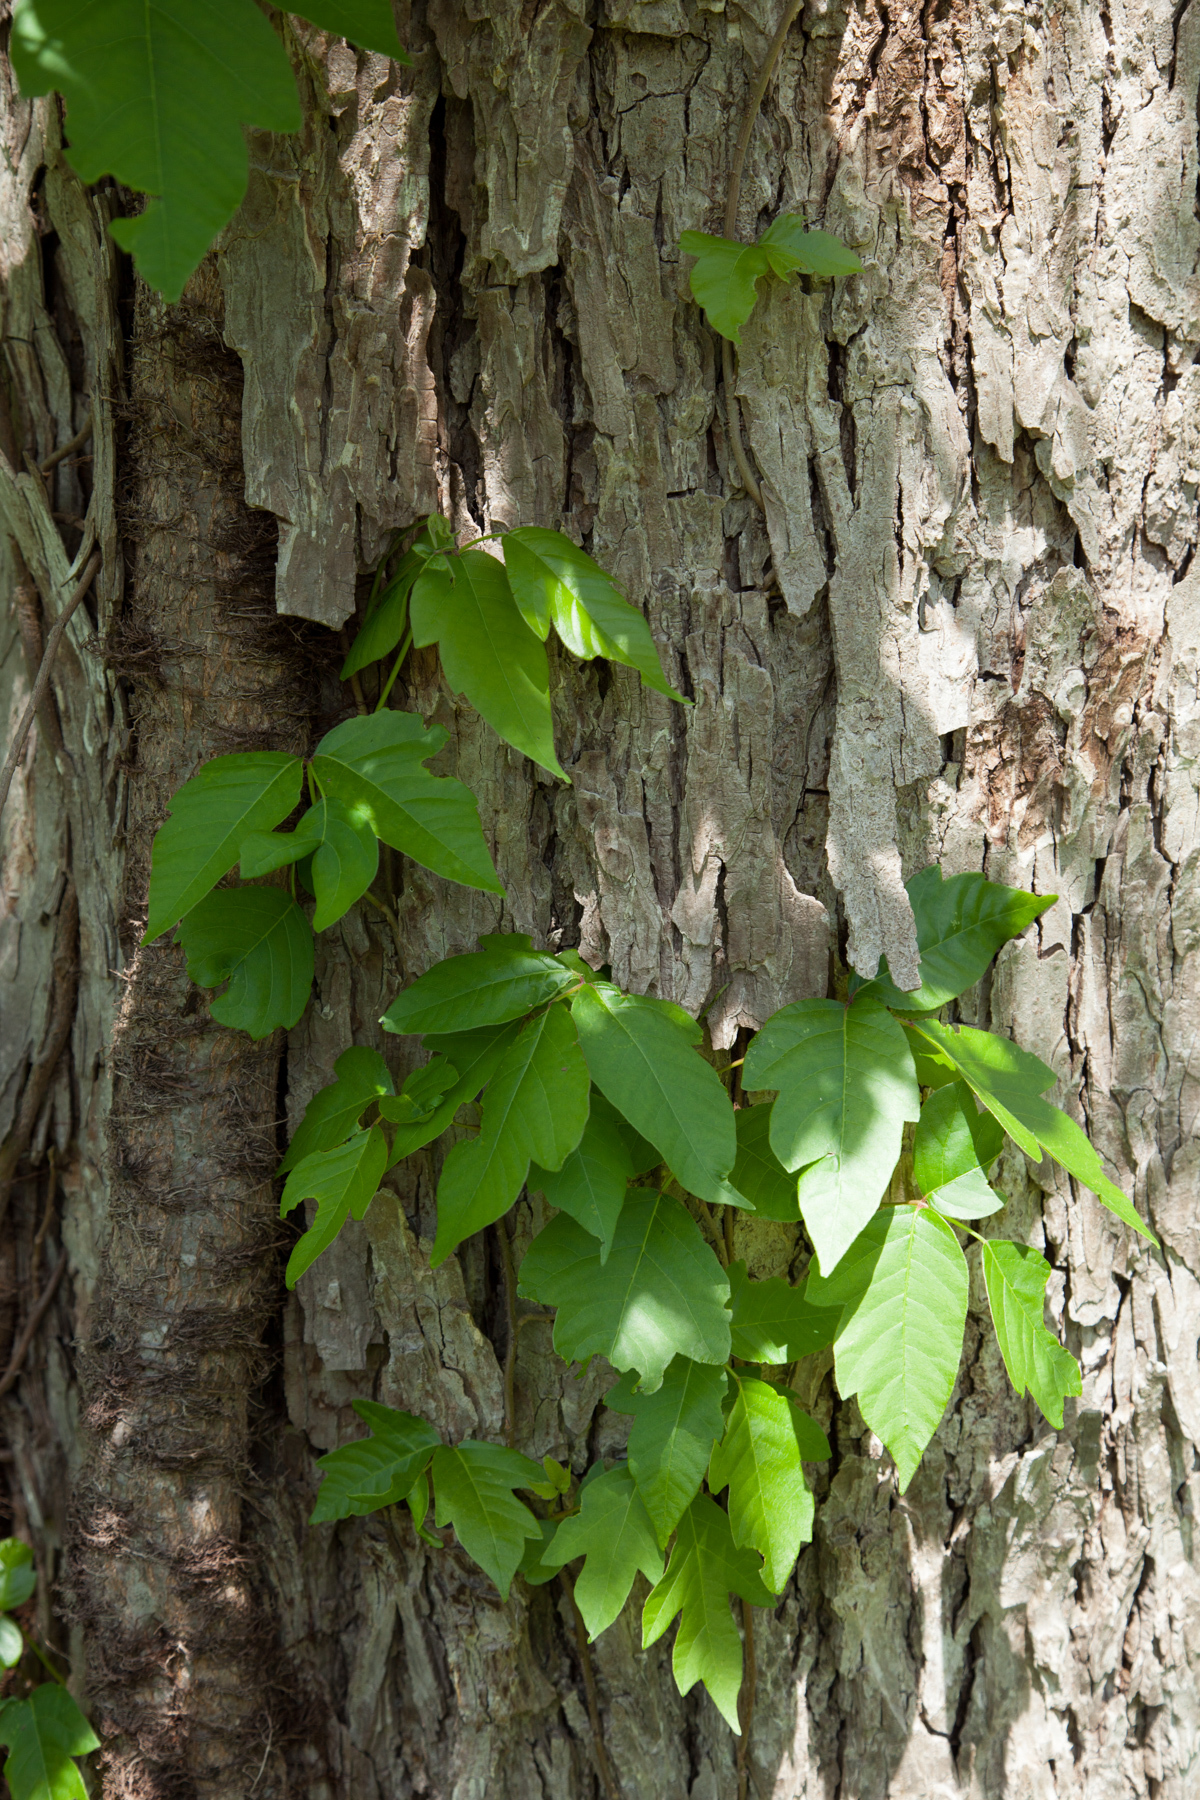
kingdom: Plantae
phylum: Tracheophyta
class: Magnoliopsida
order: Sapindales
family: Anacardiaceae
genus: Toxicodendron
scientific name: Toxicodendron radicans
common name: Poison ivy
